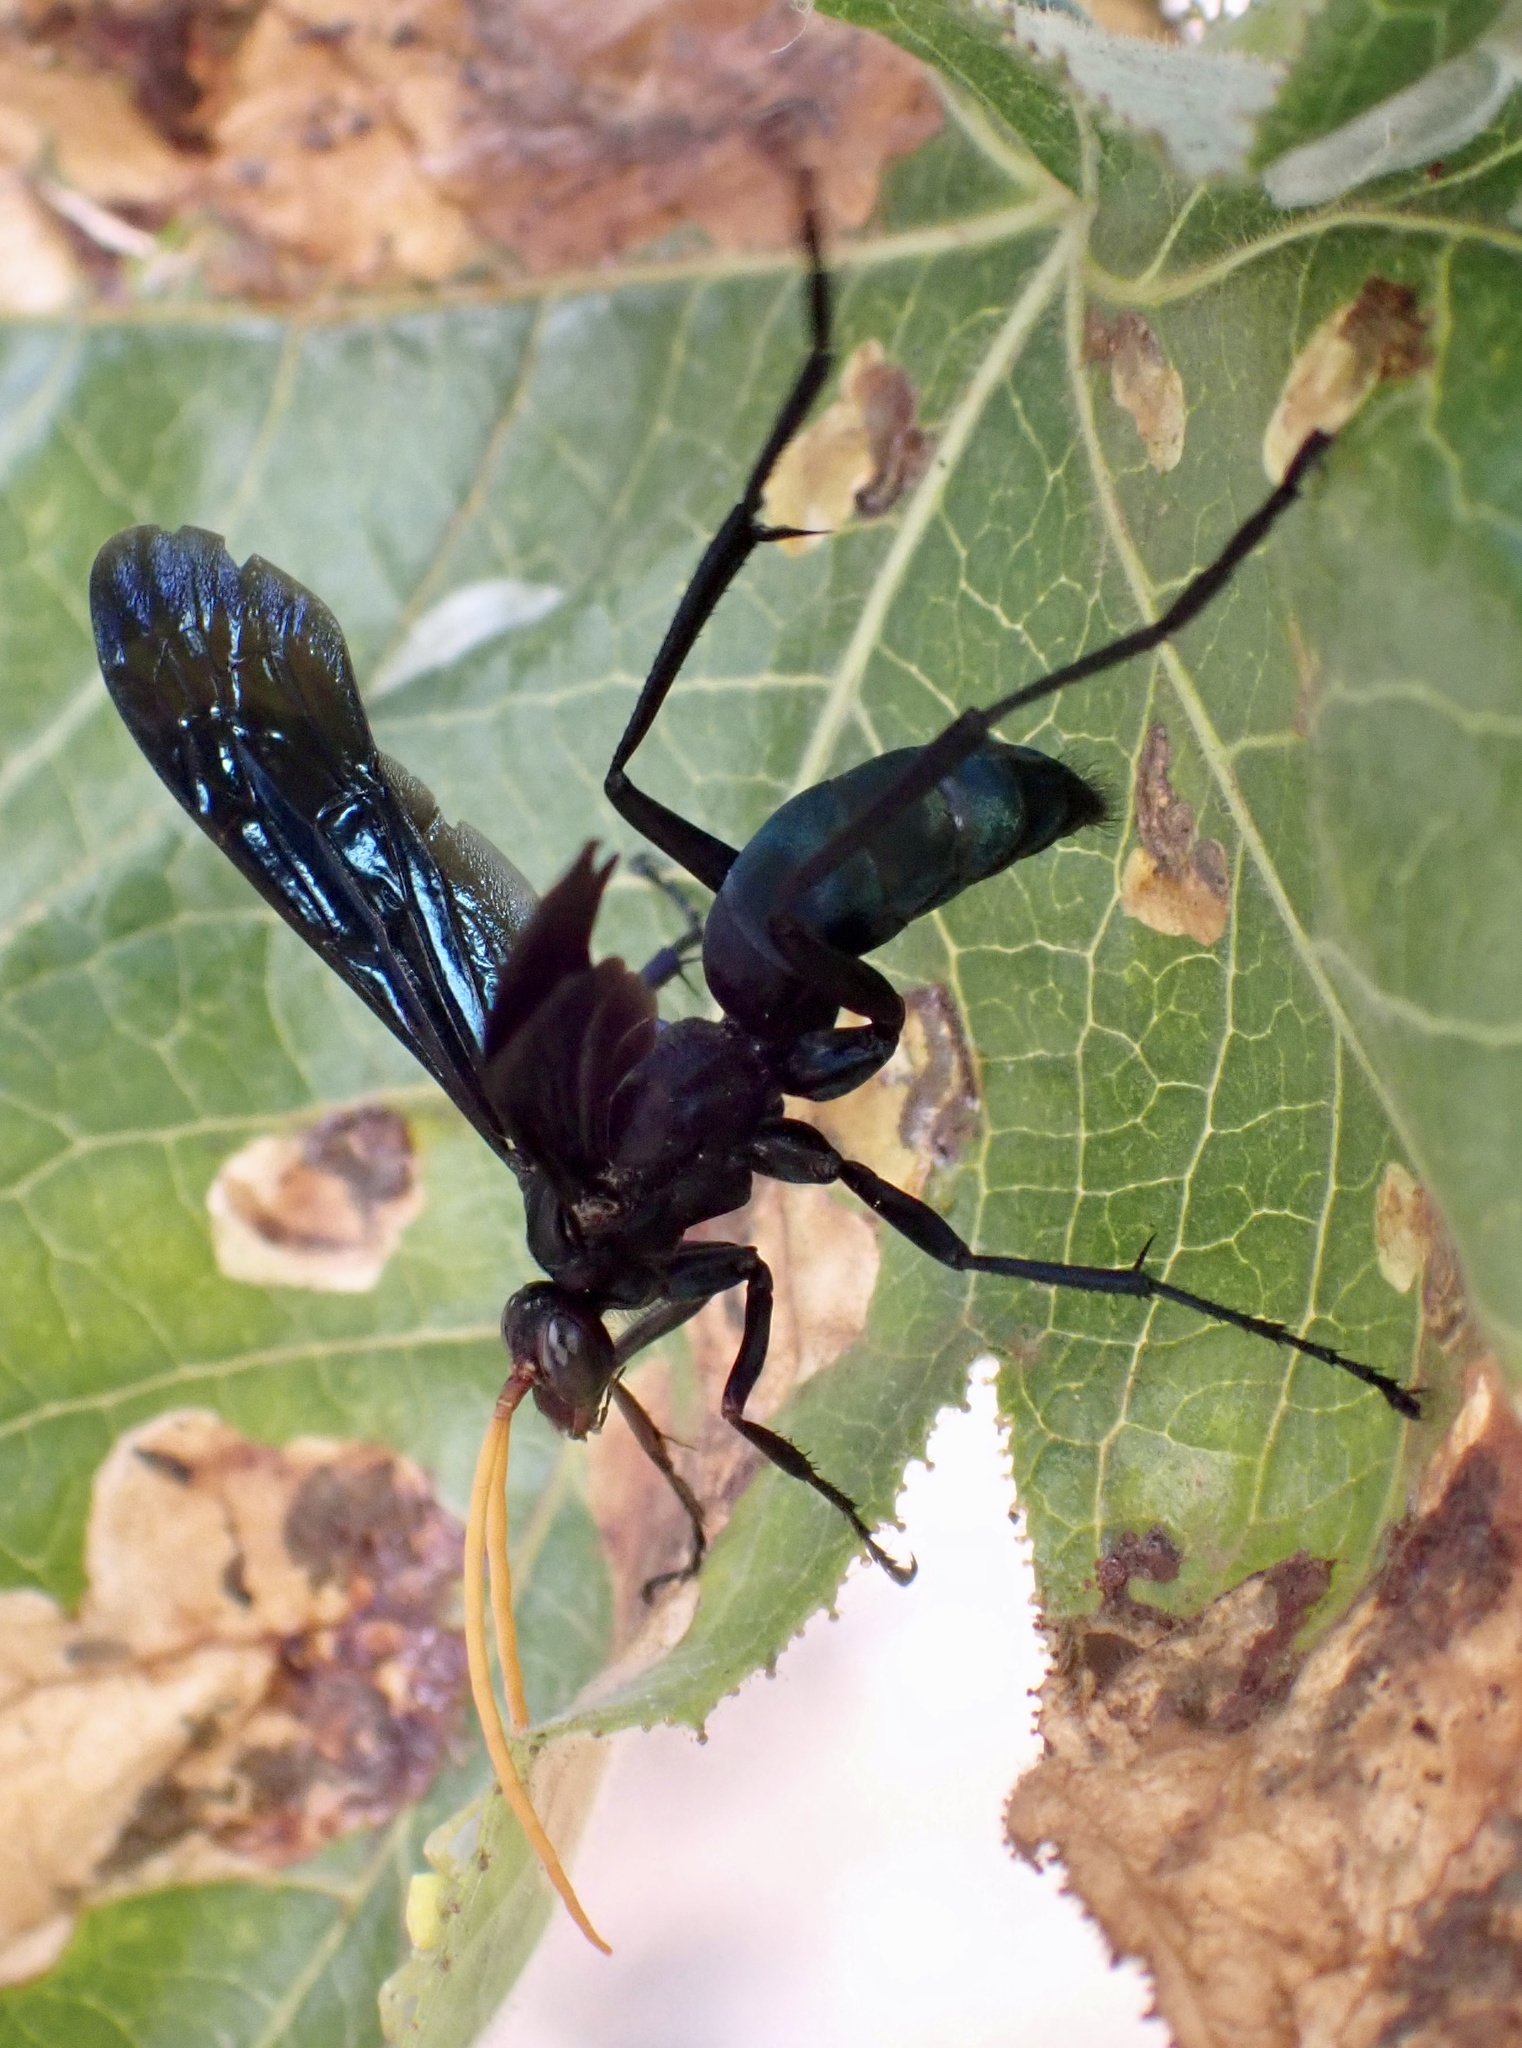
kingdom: Animalia
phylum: Arthropoda
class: Insecta
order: Hymenoptera
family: Pompilidae
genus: Cyphononyx
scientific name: Cyphononyx bretonii
